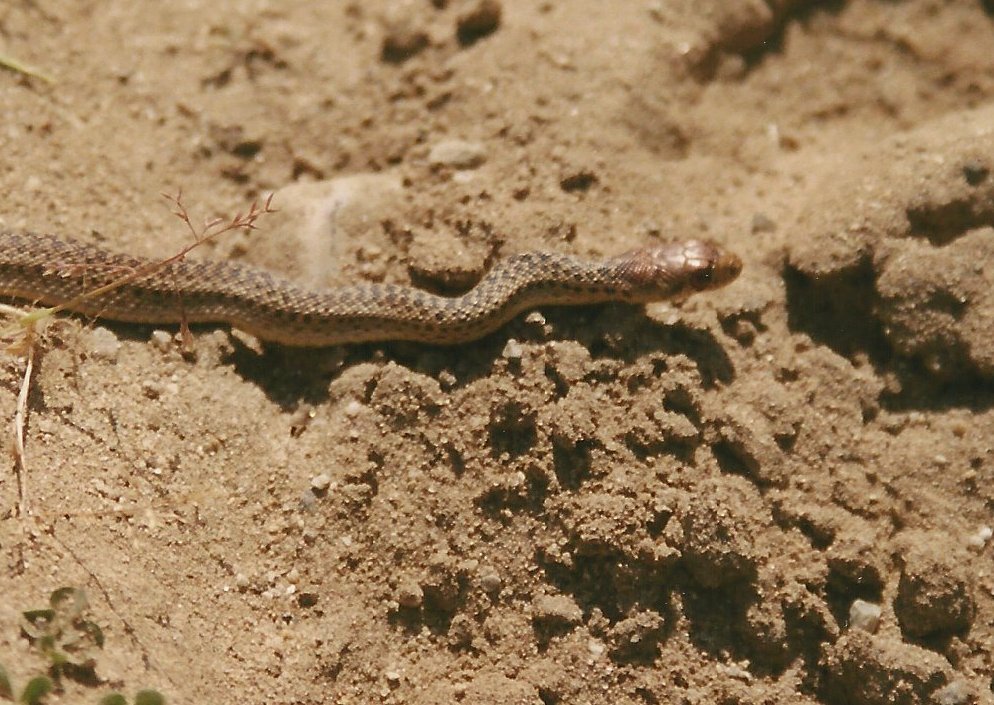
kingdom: Animalia
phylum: Chordata
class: Squamata
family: Colubridae
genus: Pituophis
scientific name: Pituophis catenifer
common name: Gopher snake
